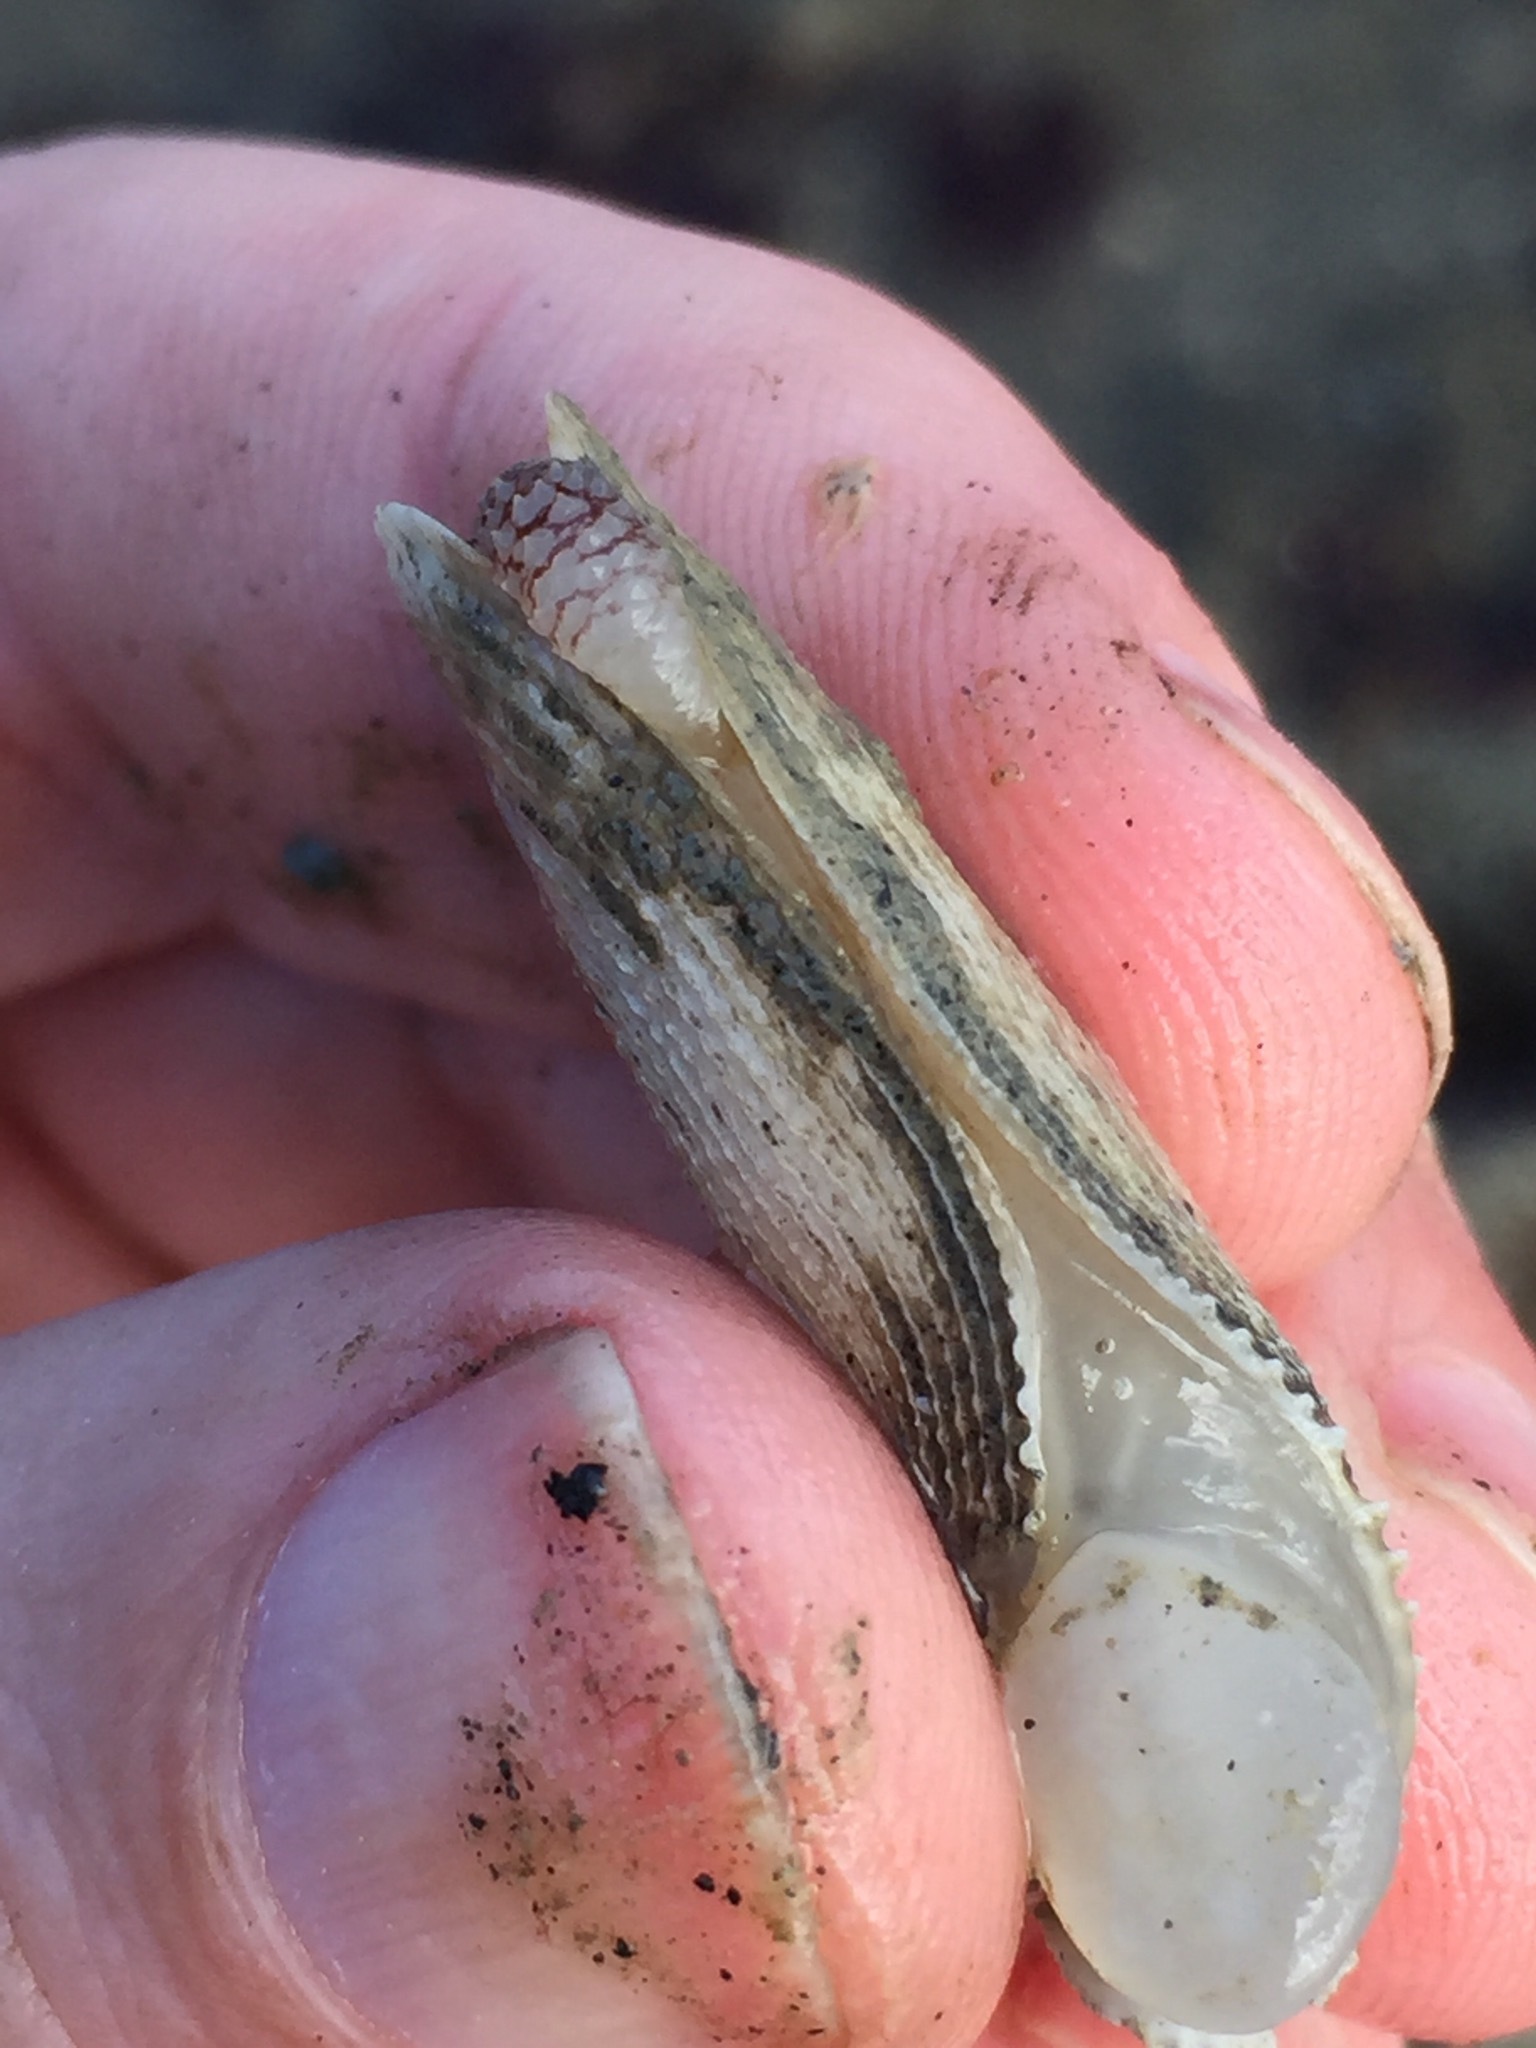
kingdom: Animalia
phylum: Mollusca
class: Bivalvia
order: Myida
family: Pholadidae
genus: Barnea
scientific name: Barnea similis
